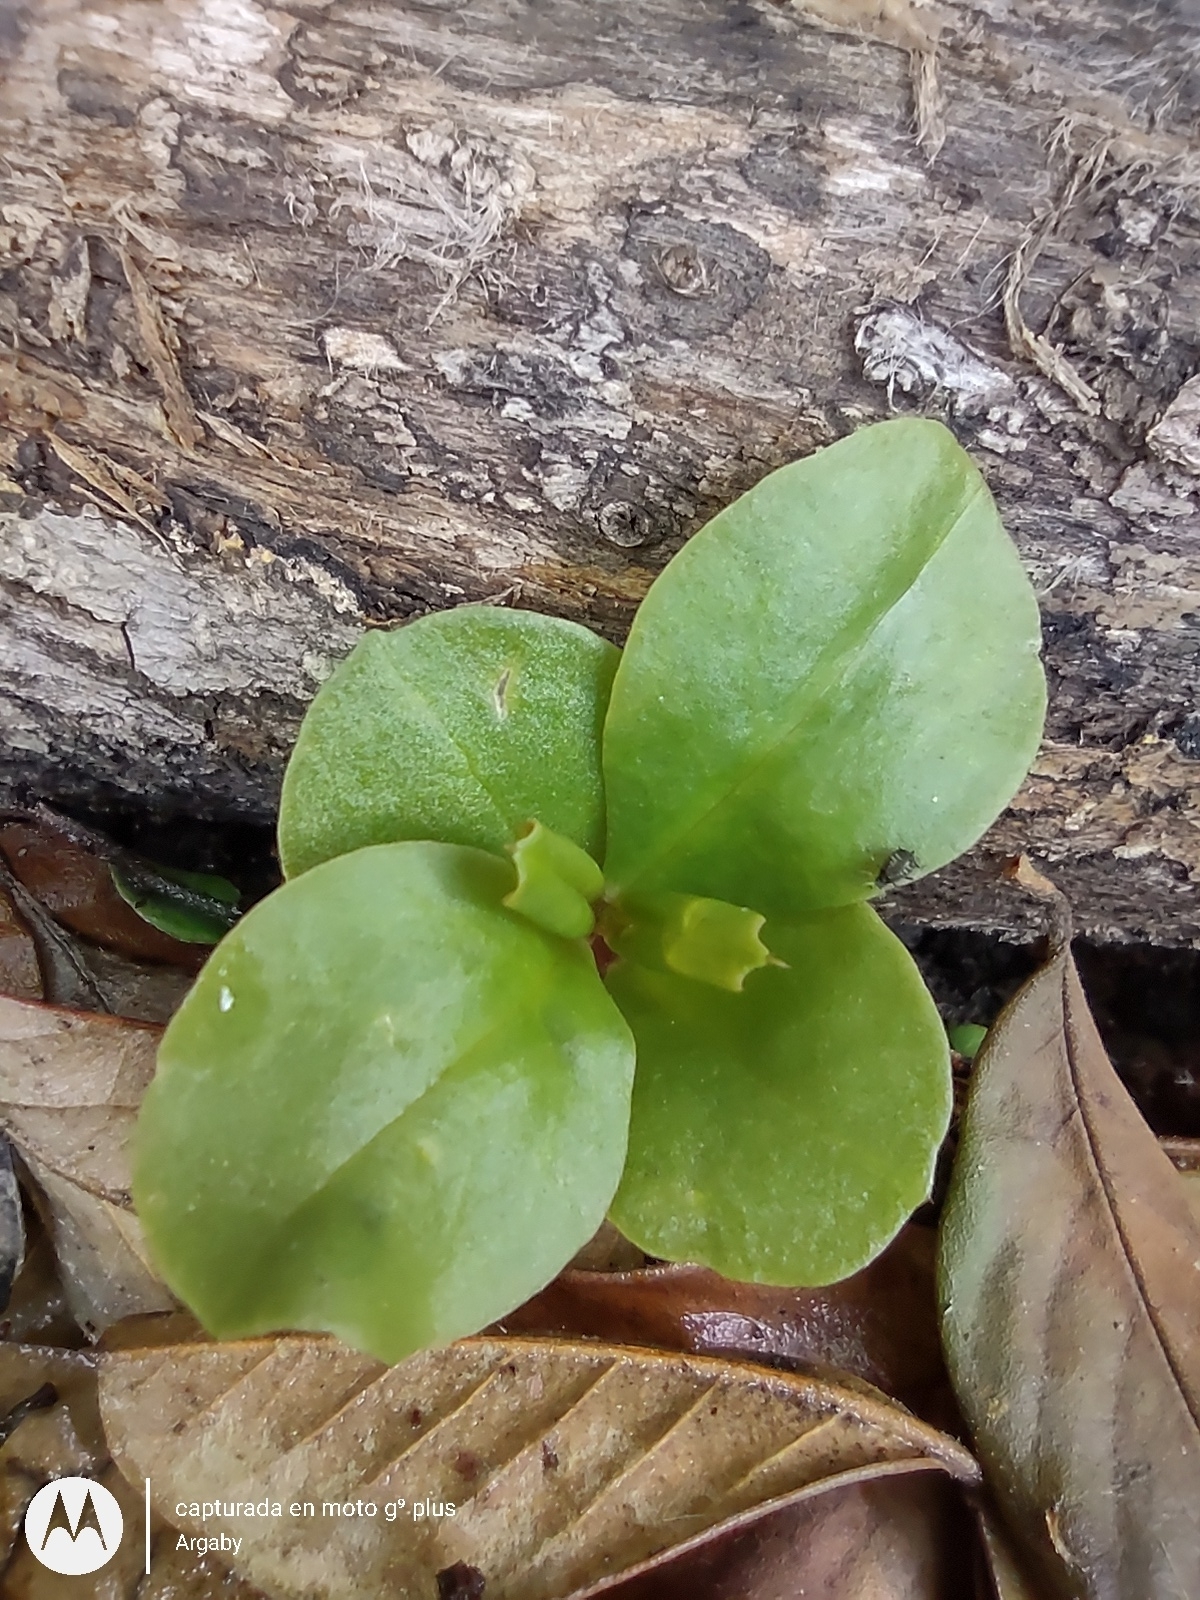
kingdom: Plantae
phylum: Tracheophyta
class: Magnoliopsida
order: Caryophyllales
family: Talinaceae
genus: Talinum
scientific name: Talinum paniculatum
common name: Jewels of opar
